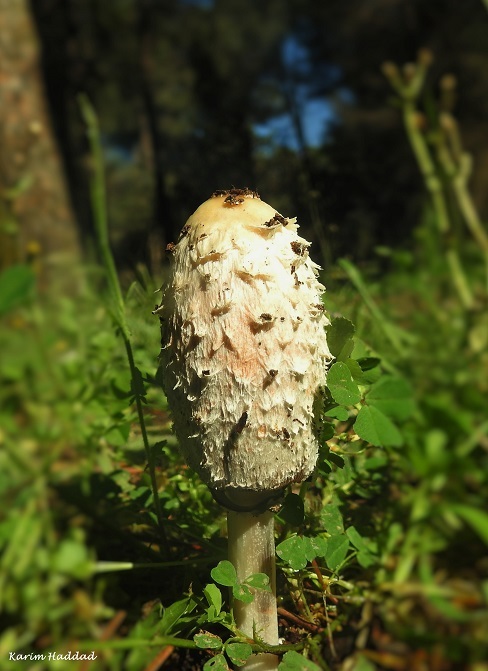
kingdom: Fungi
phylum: Basidiomycota
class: Agaricomycetes
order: Agaricales
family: Agaricaceae
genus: Coprinus
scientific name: Coprinus comatus
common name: Lawyer's wig
